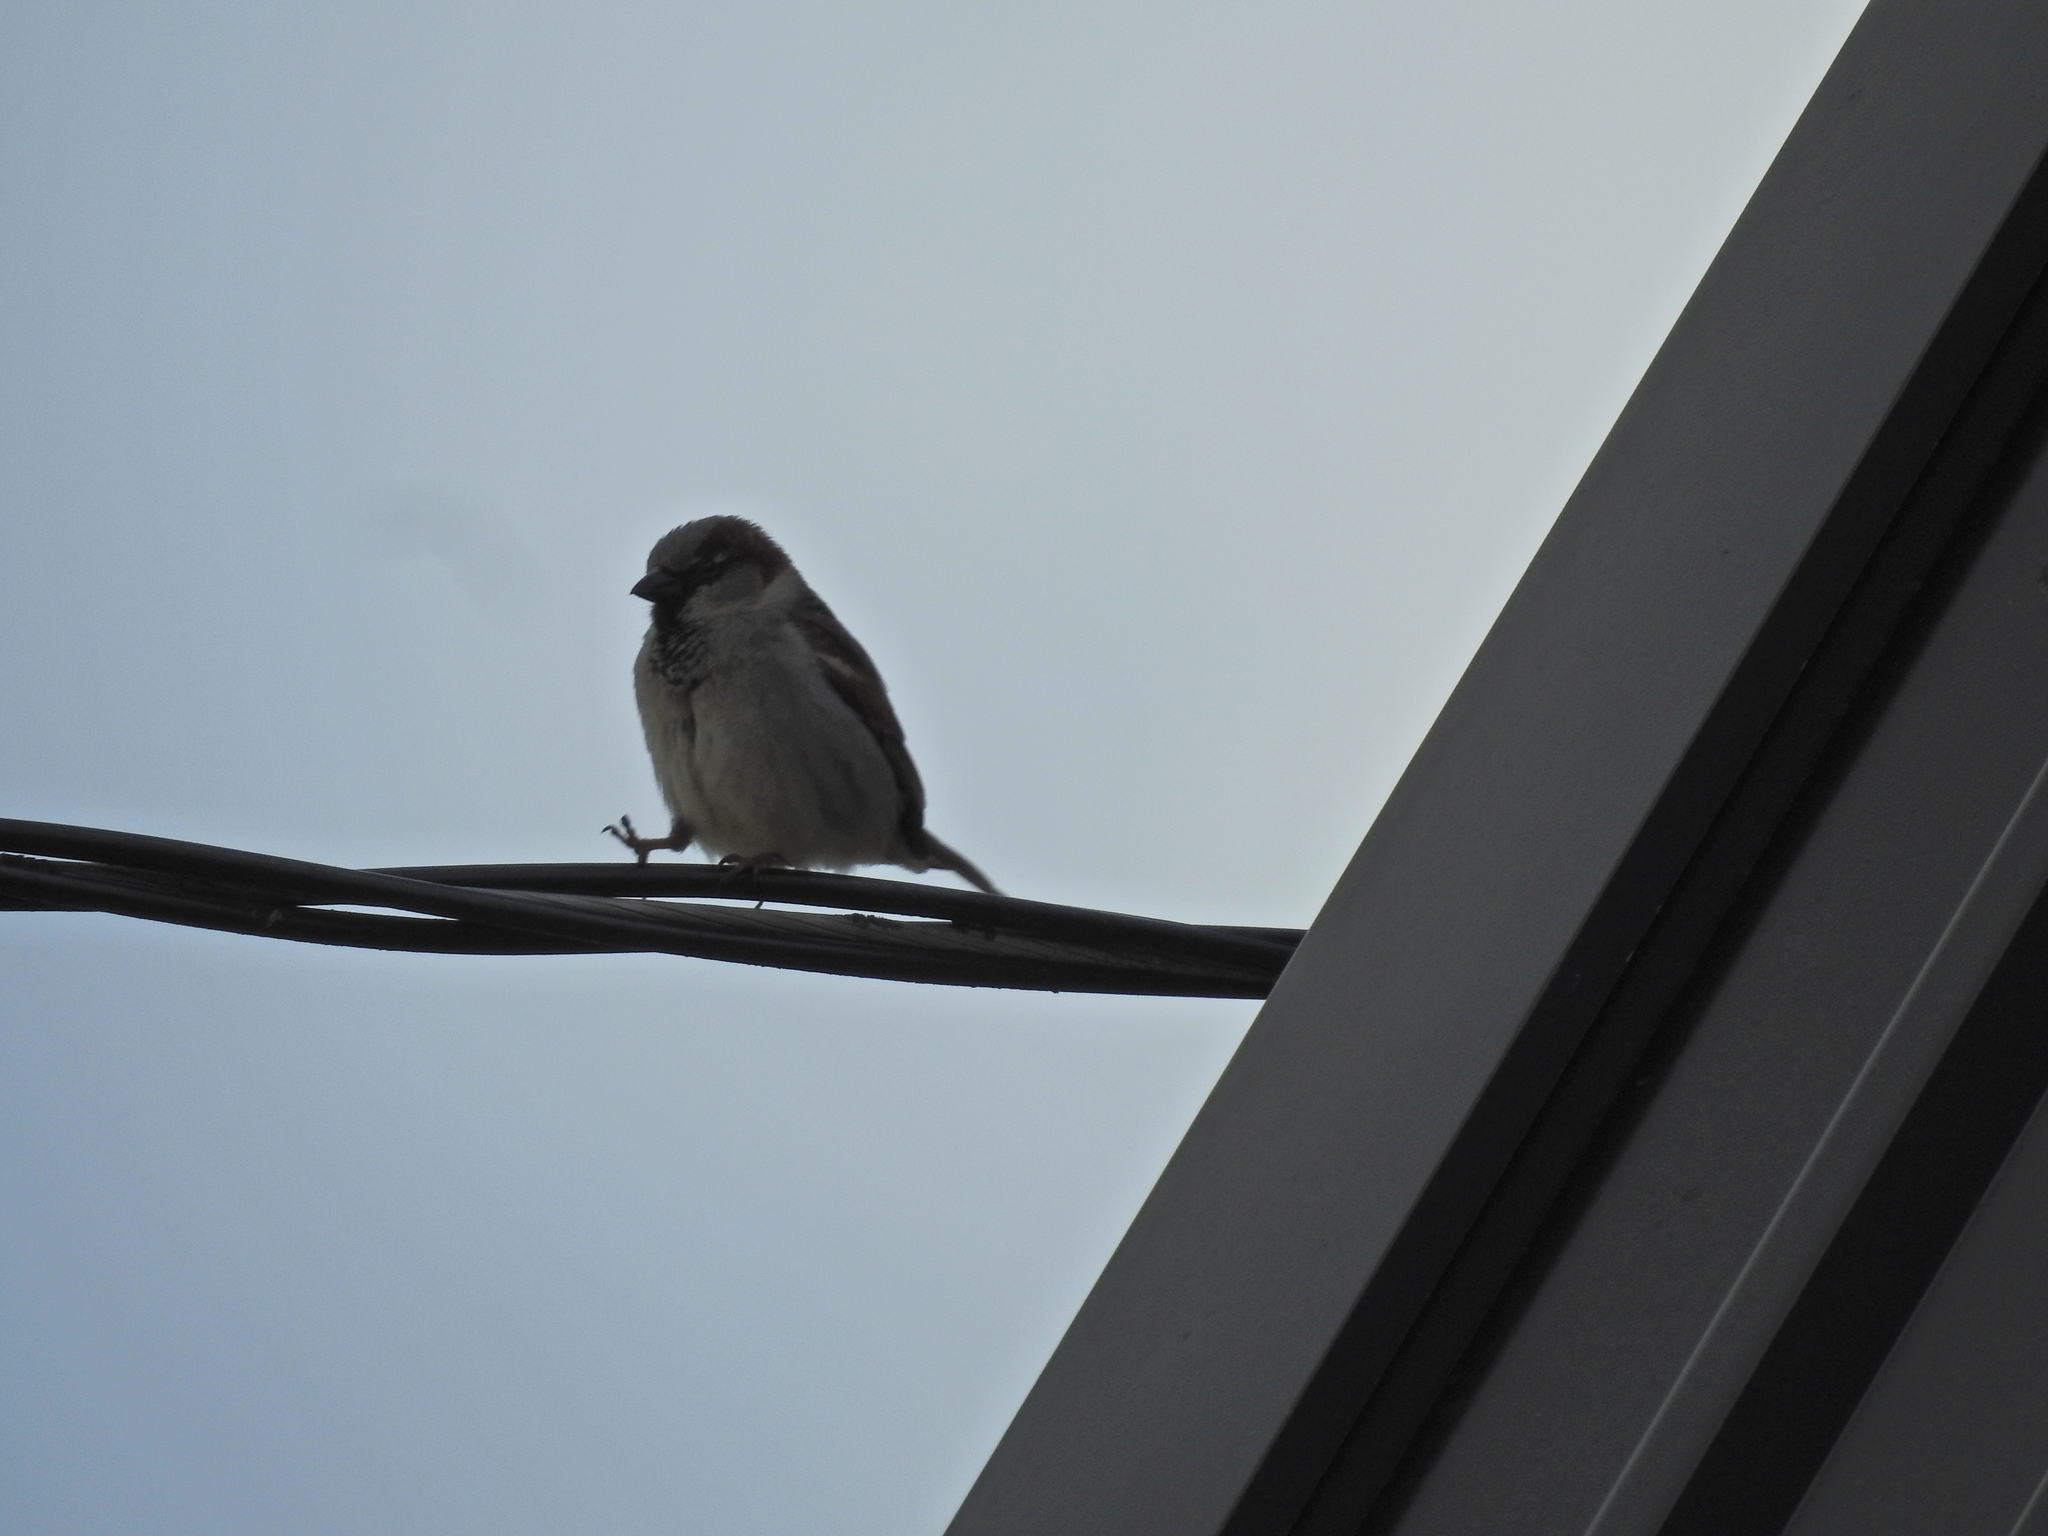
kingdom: Animalia
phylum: Chordata
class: Aves
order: Passeriformes
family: Passeridae
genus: Passer
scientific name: Passer domesticus
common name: House sparrow
